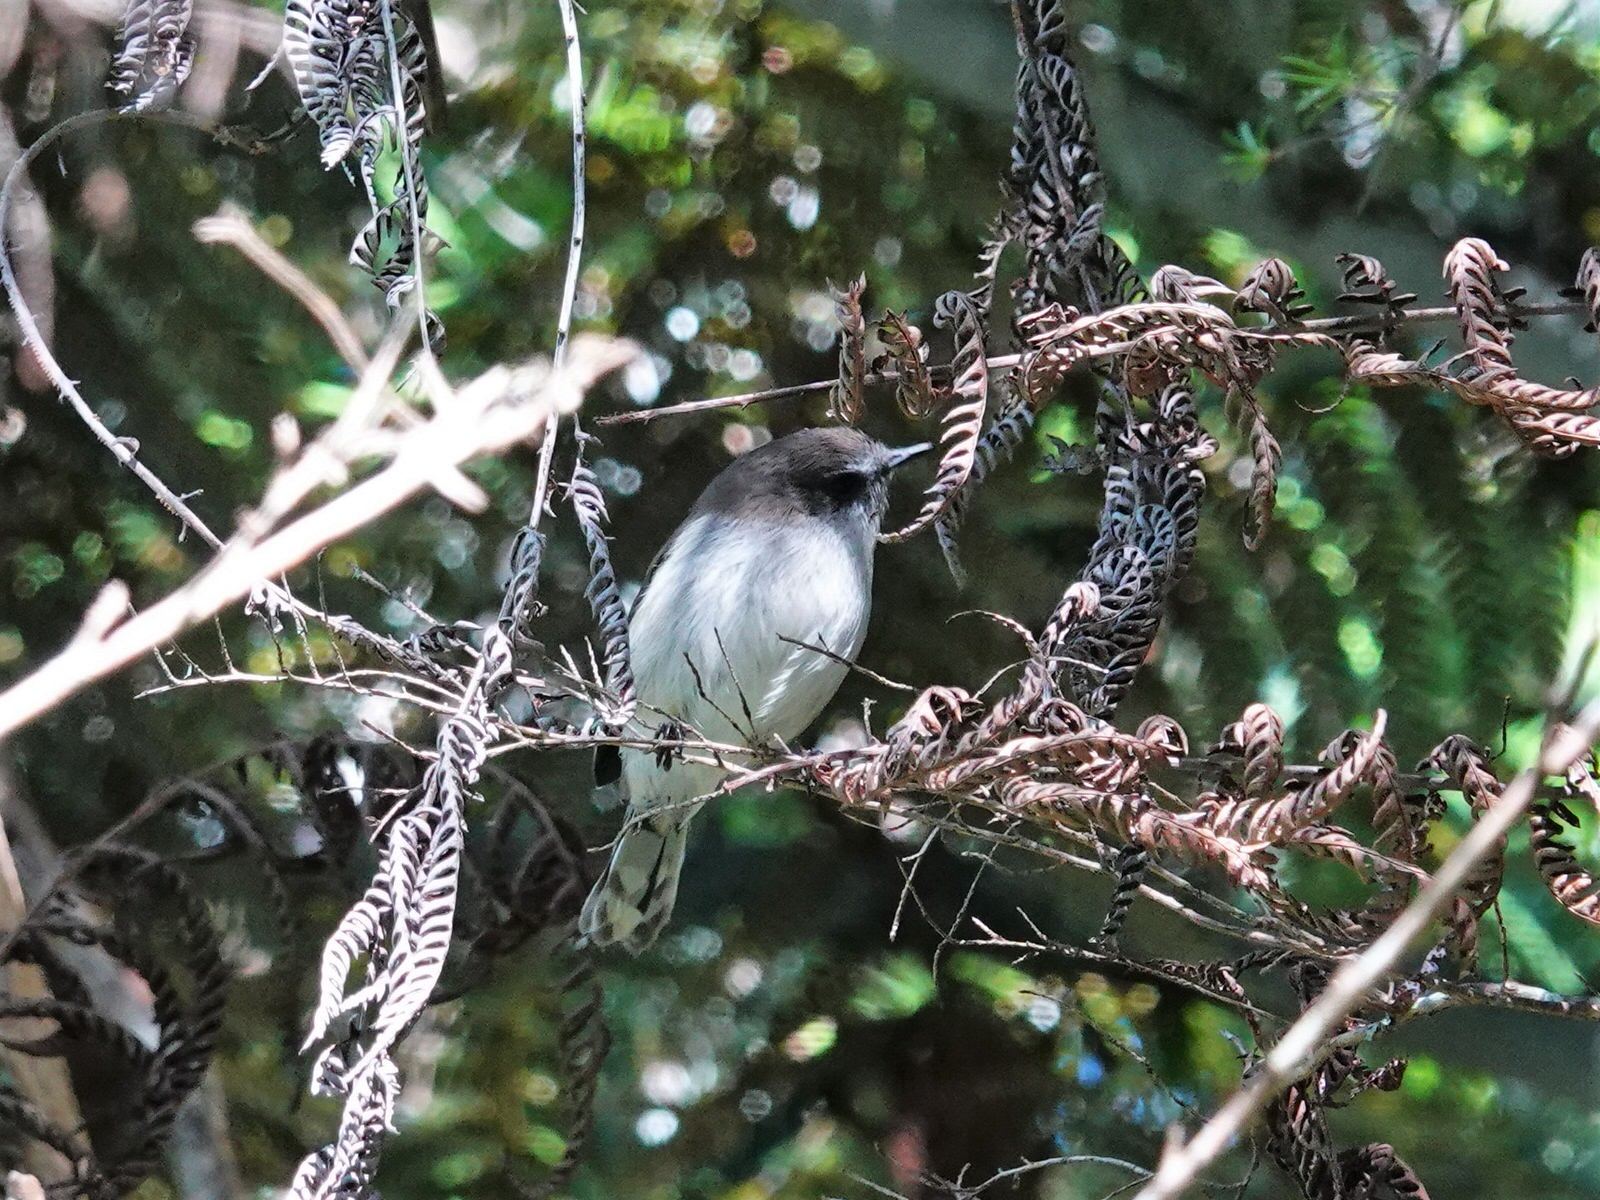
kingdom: Animalia
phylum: Chordata
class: Aves
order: Passeriformes
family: Acanthizidae
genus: Gerygone
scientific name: Gerygone igata
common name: Grey gerygone
